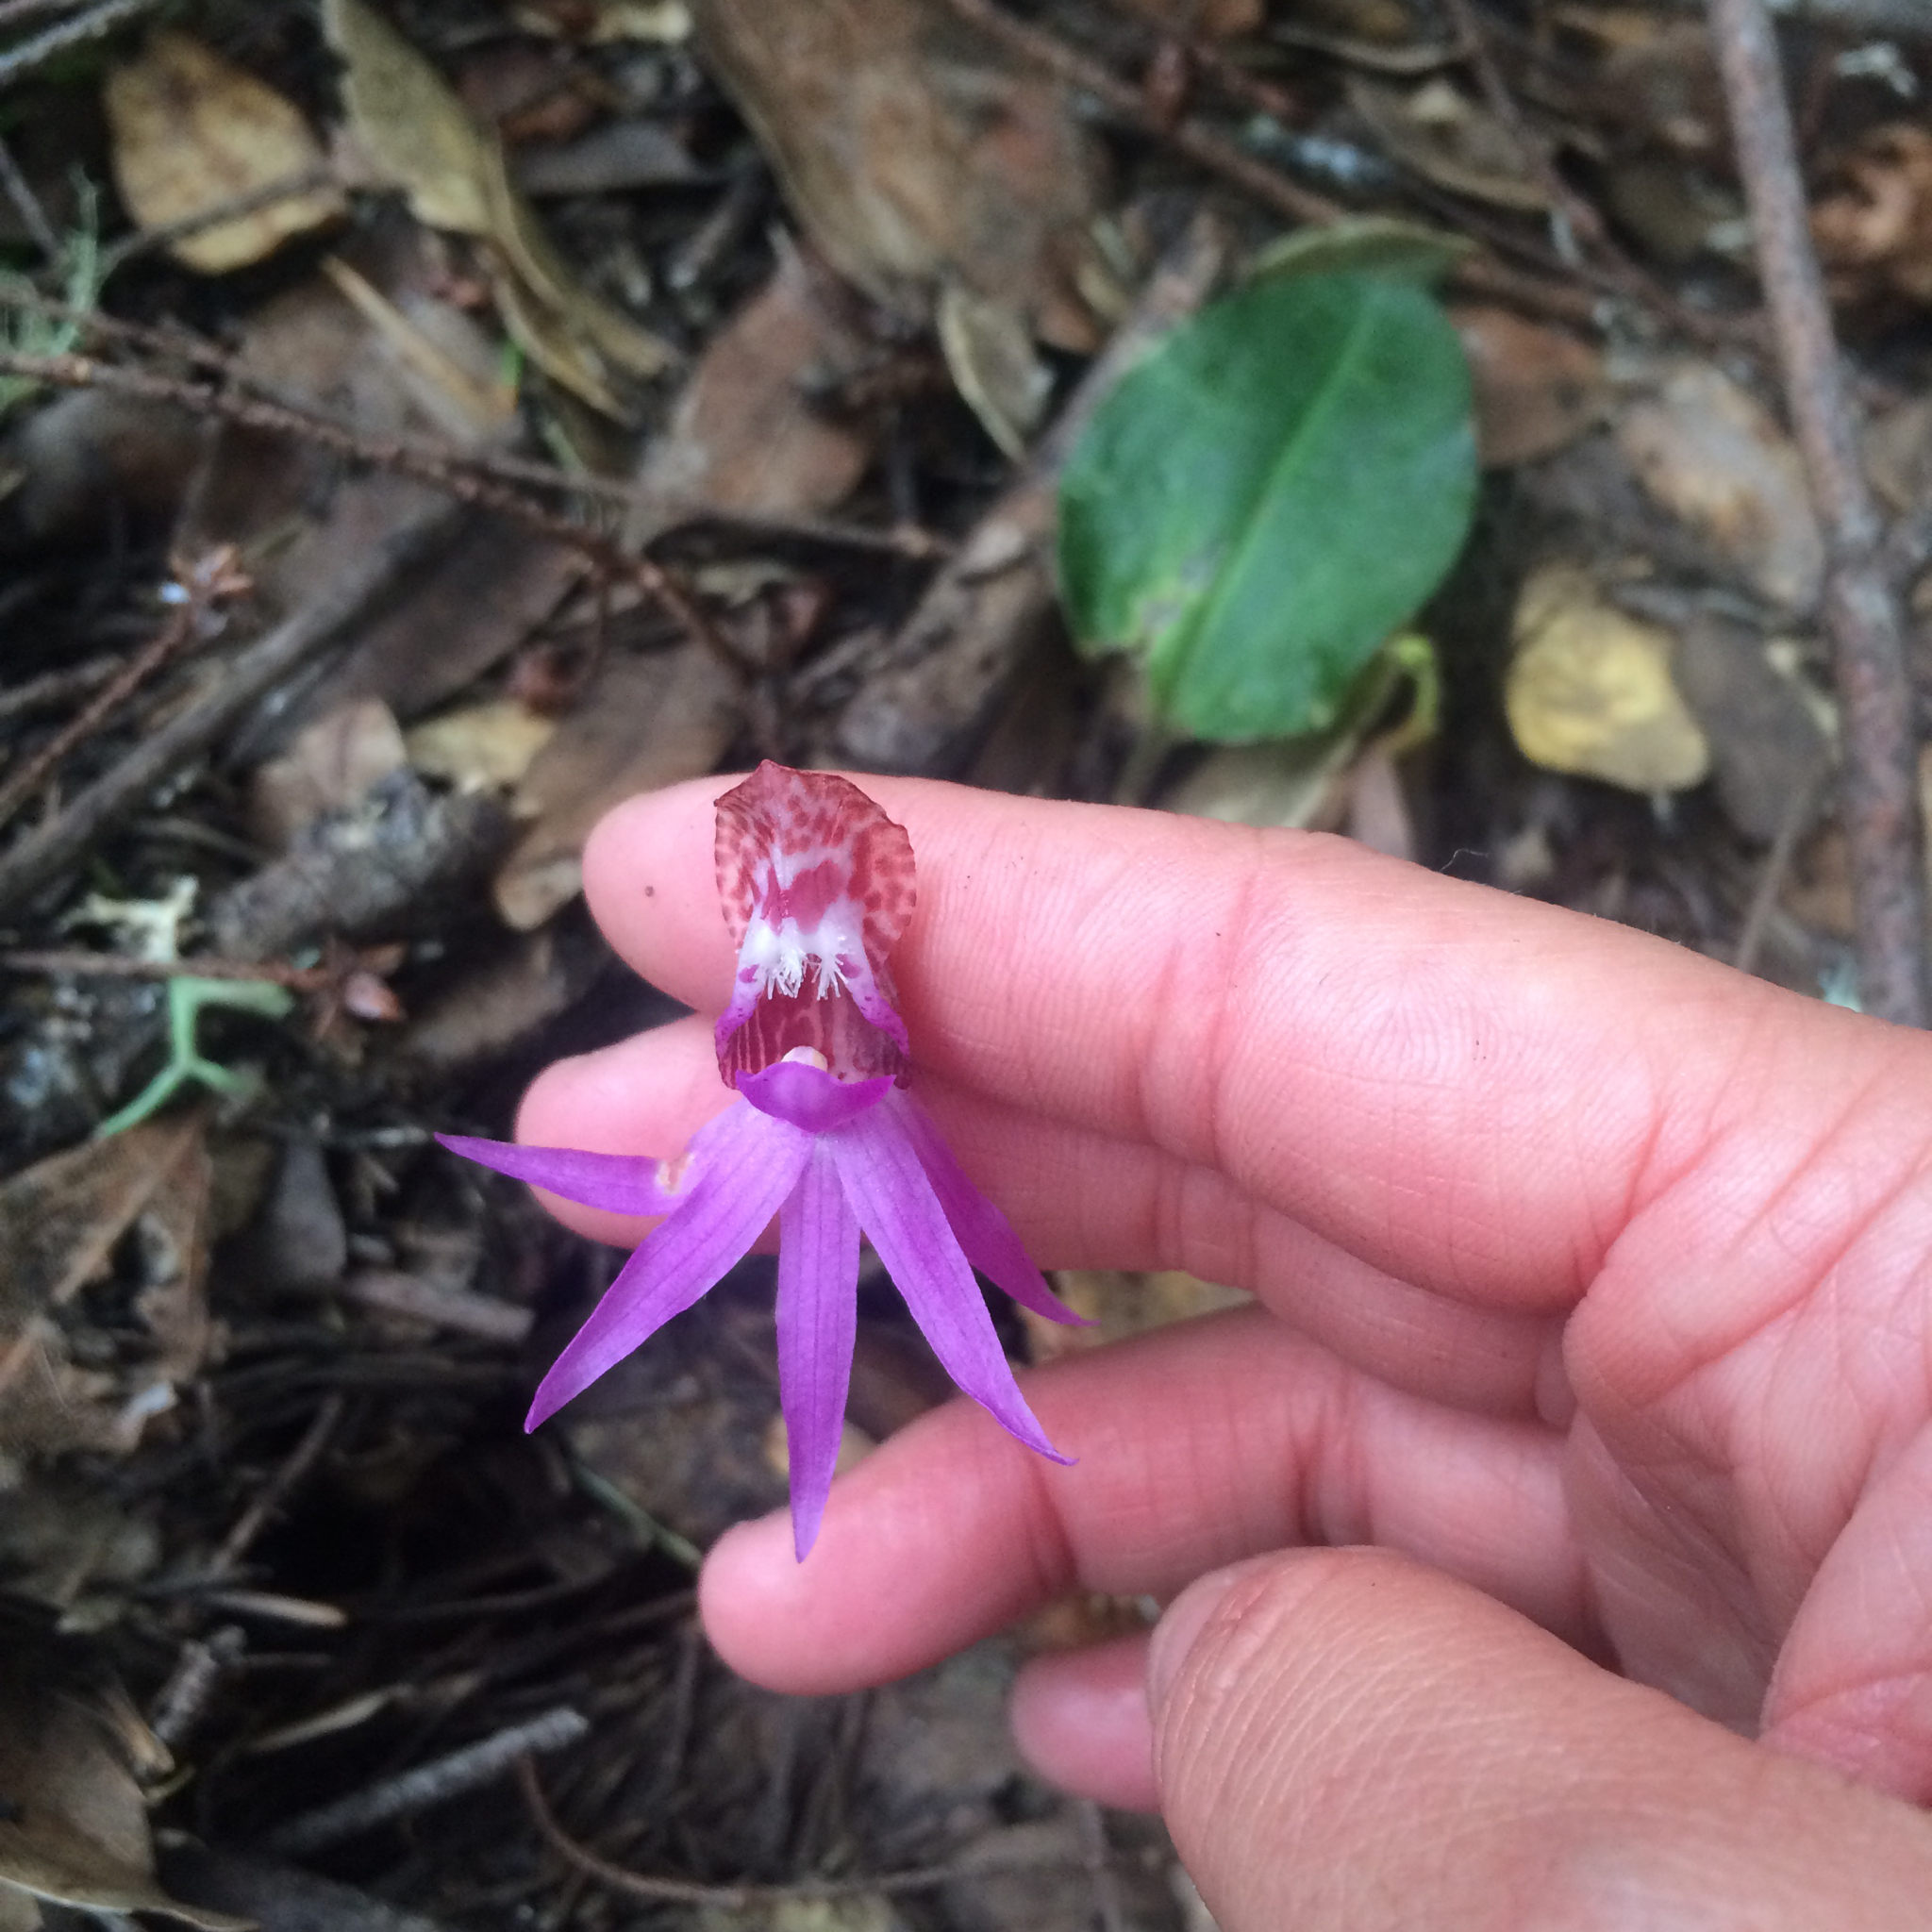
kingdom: Plantae
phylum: Tracheophyta
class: Liliopsida
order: Asparagales
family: Orchidaceae
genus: Calypso
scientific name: Calypso bulbosa
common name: Calypso
